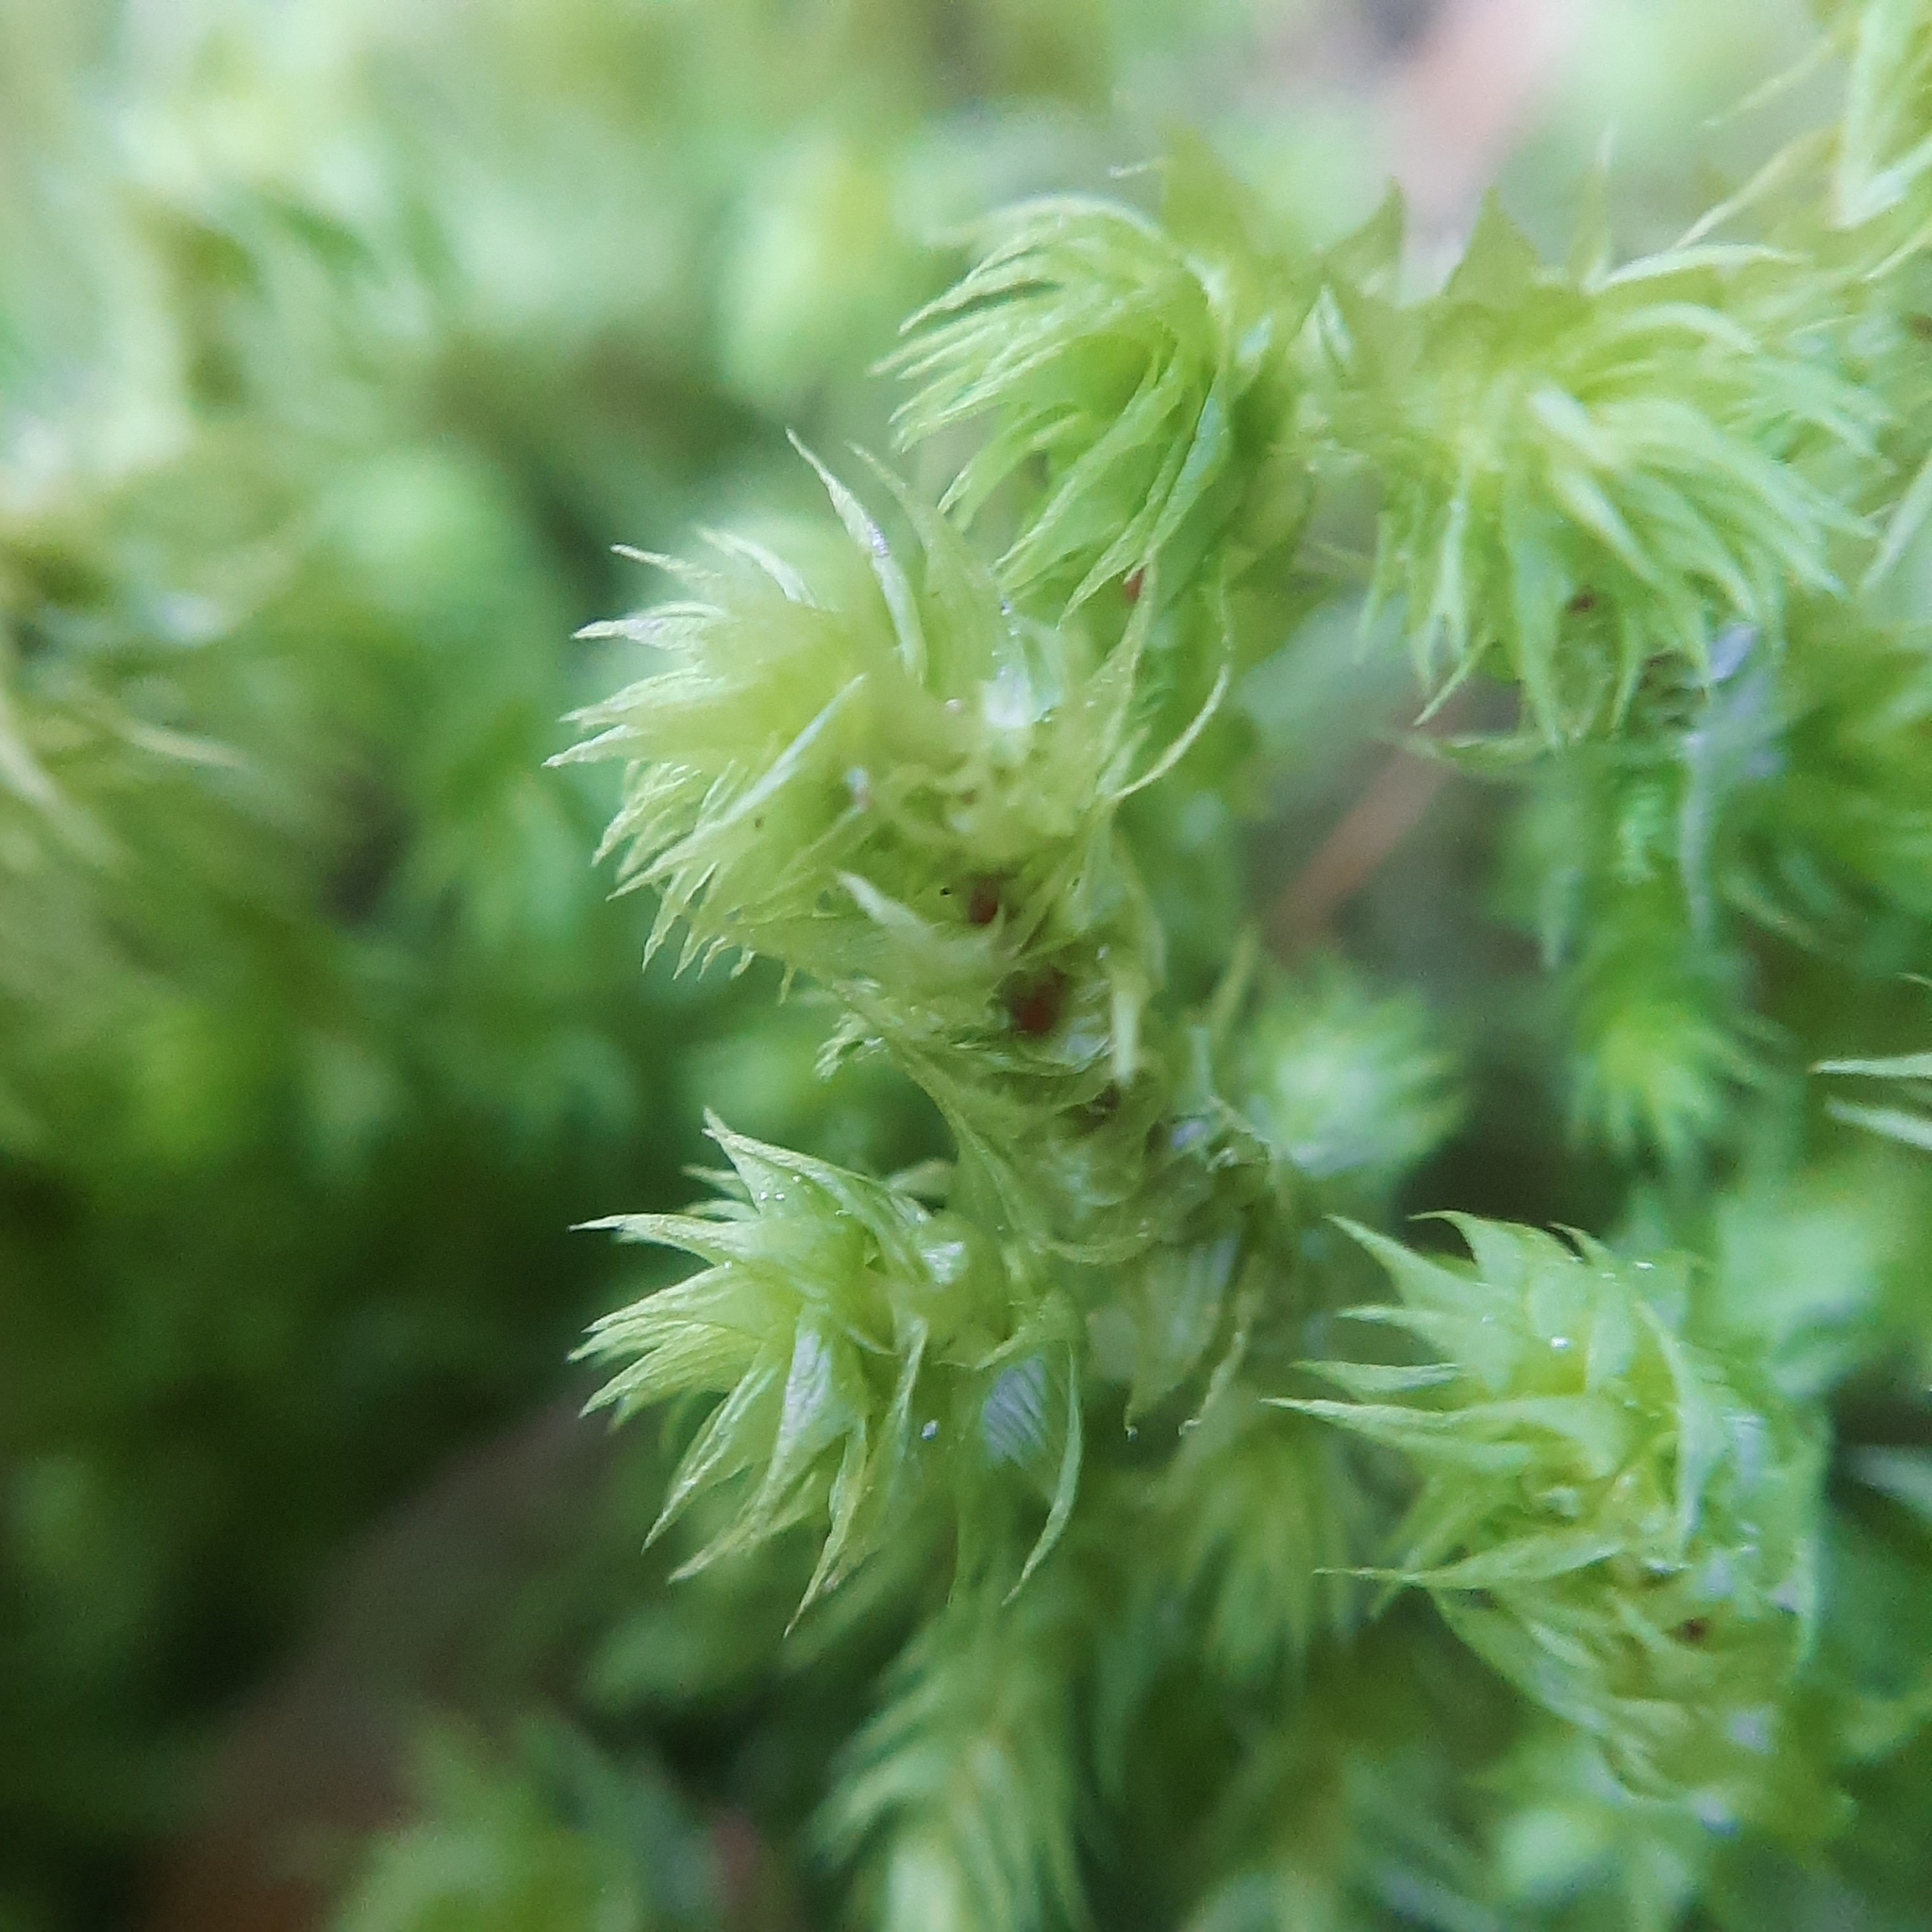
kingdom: Plantae
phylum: Bryophyta
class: Bryopsida
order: Hypnales
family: Hylocomiaceae
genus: Hylocomiadelphus
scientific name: Hylocomiadelphus triquetrus
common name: Rough goose neck moss
